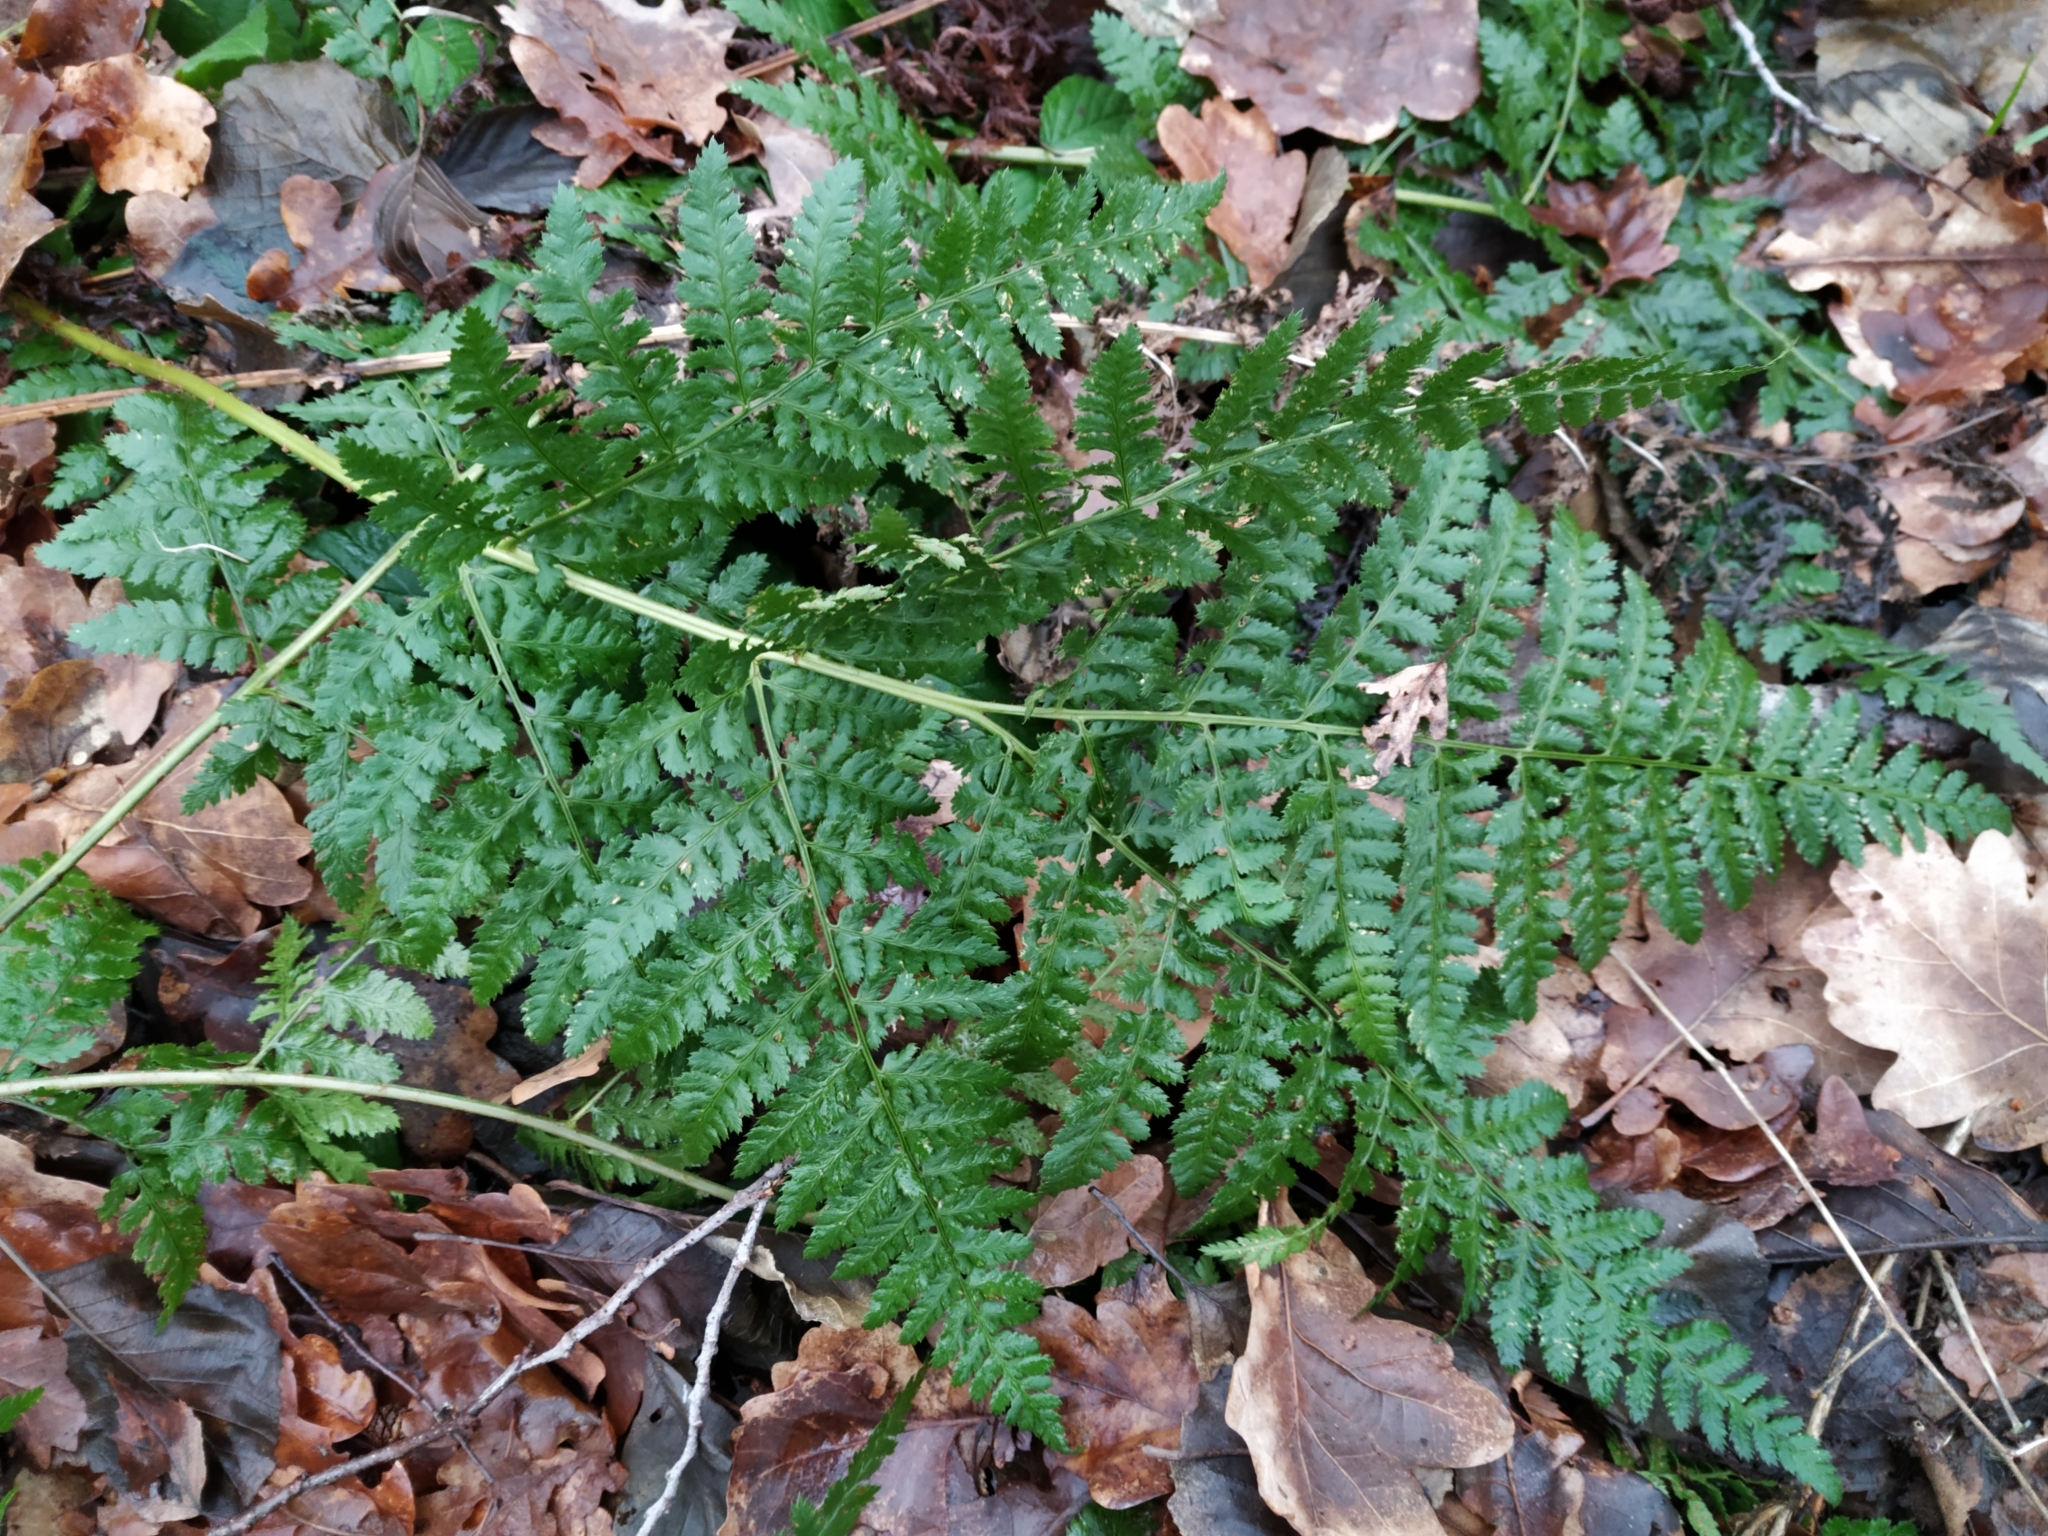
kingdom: Plantae
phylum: Tracheophyta
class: Polypodiopsida
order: Polypodiales
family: Dryopteridaceae
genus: Dryopteris
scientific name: Dryopteris dilatata
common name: Broad buckler-fern
